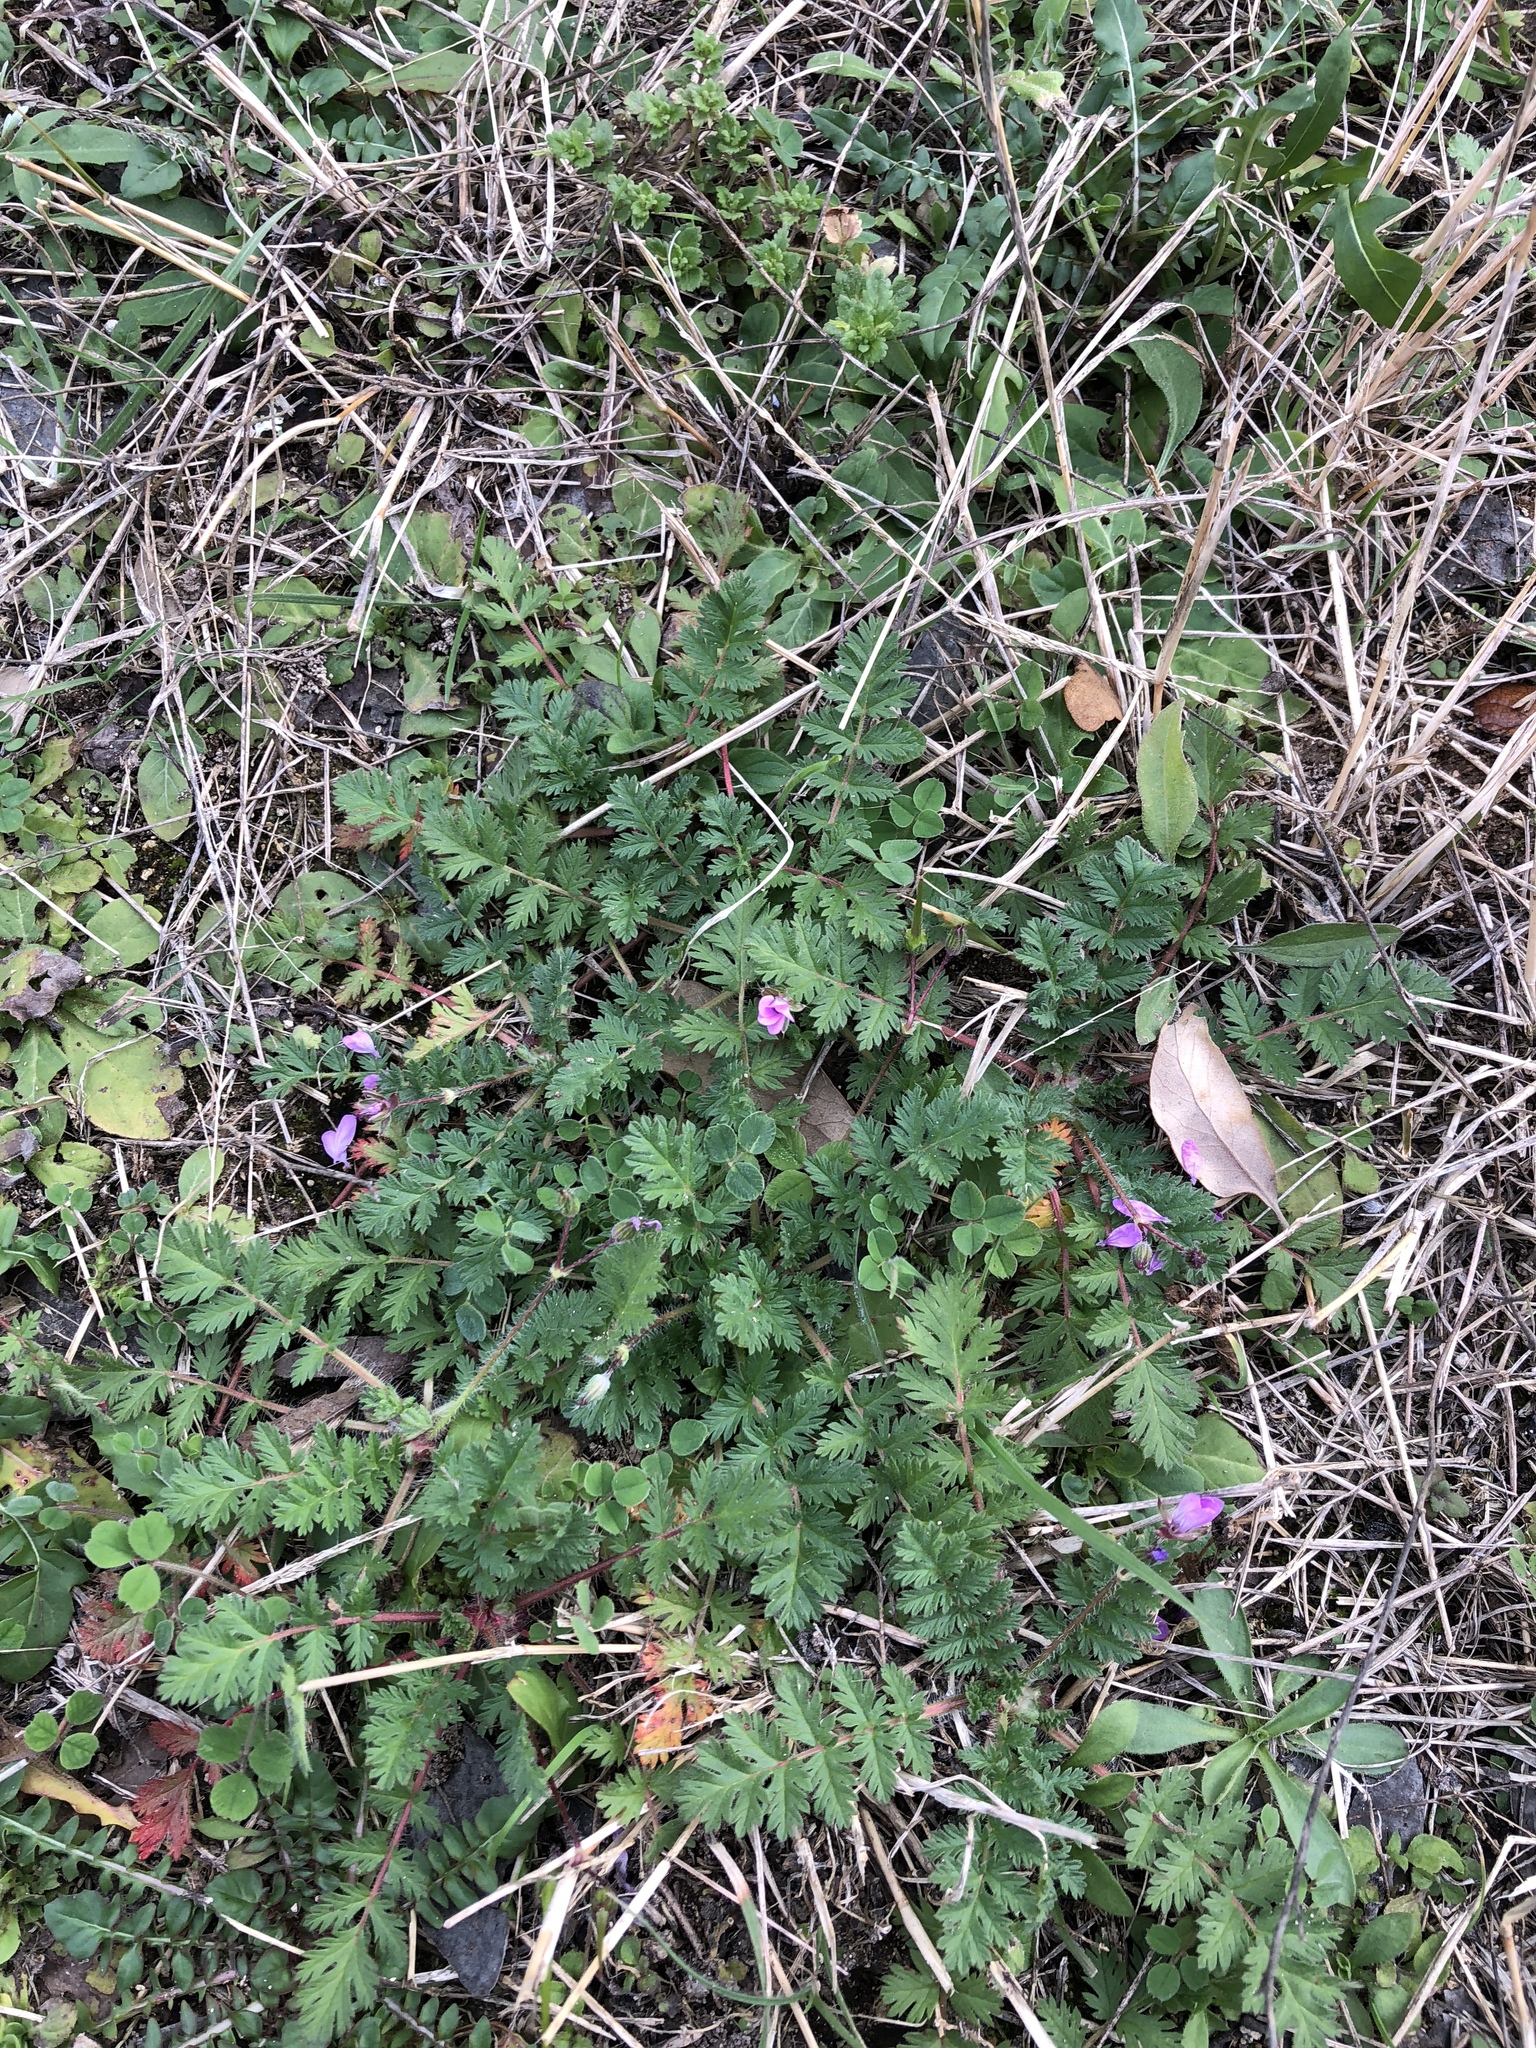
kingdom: Plantae
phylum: Tracheophyta
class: Magnoliopsida
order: Geraniales
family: Geraniaceae
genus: Erodium
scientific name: Erodium cicutarium
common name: Common stork's-bill
